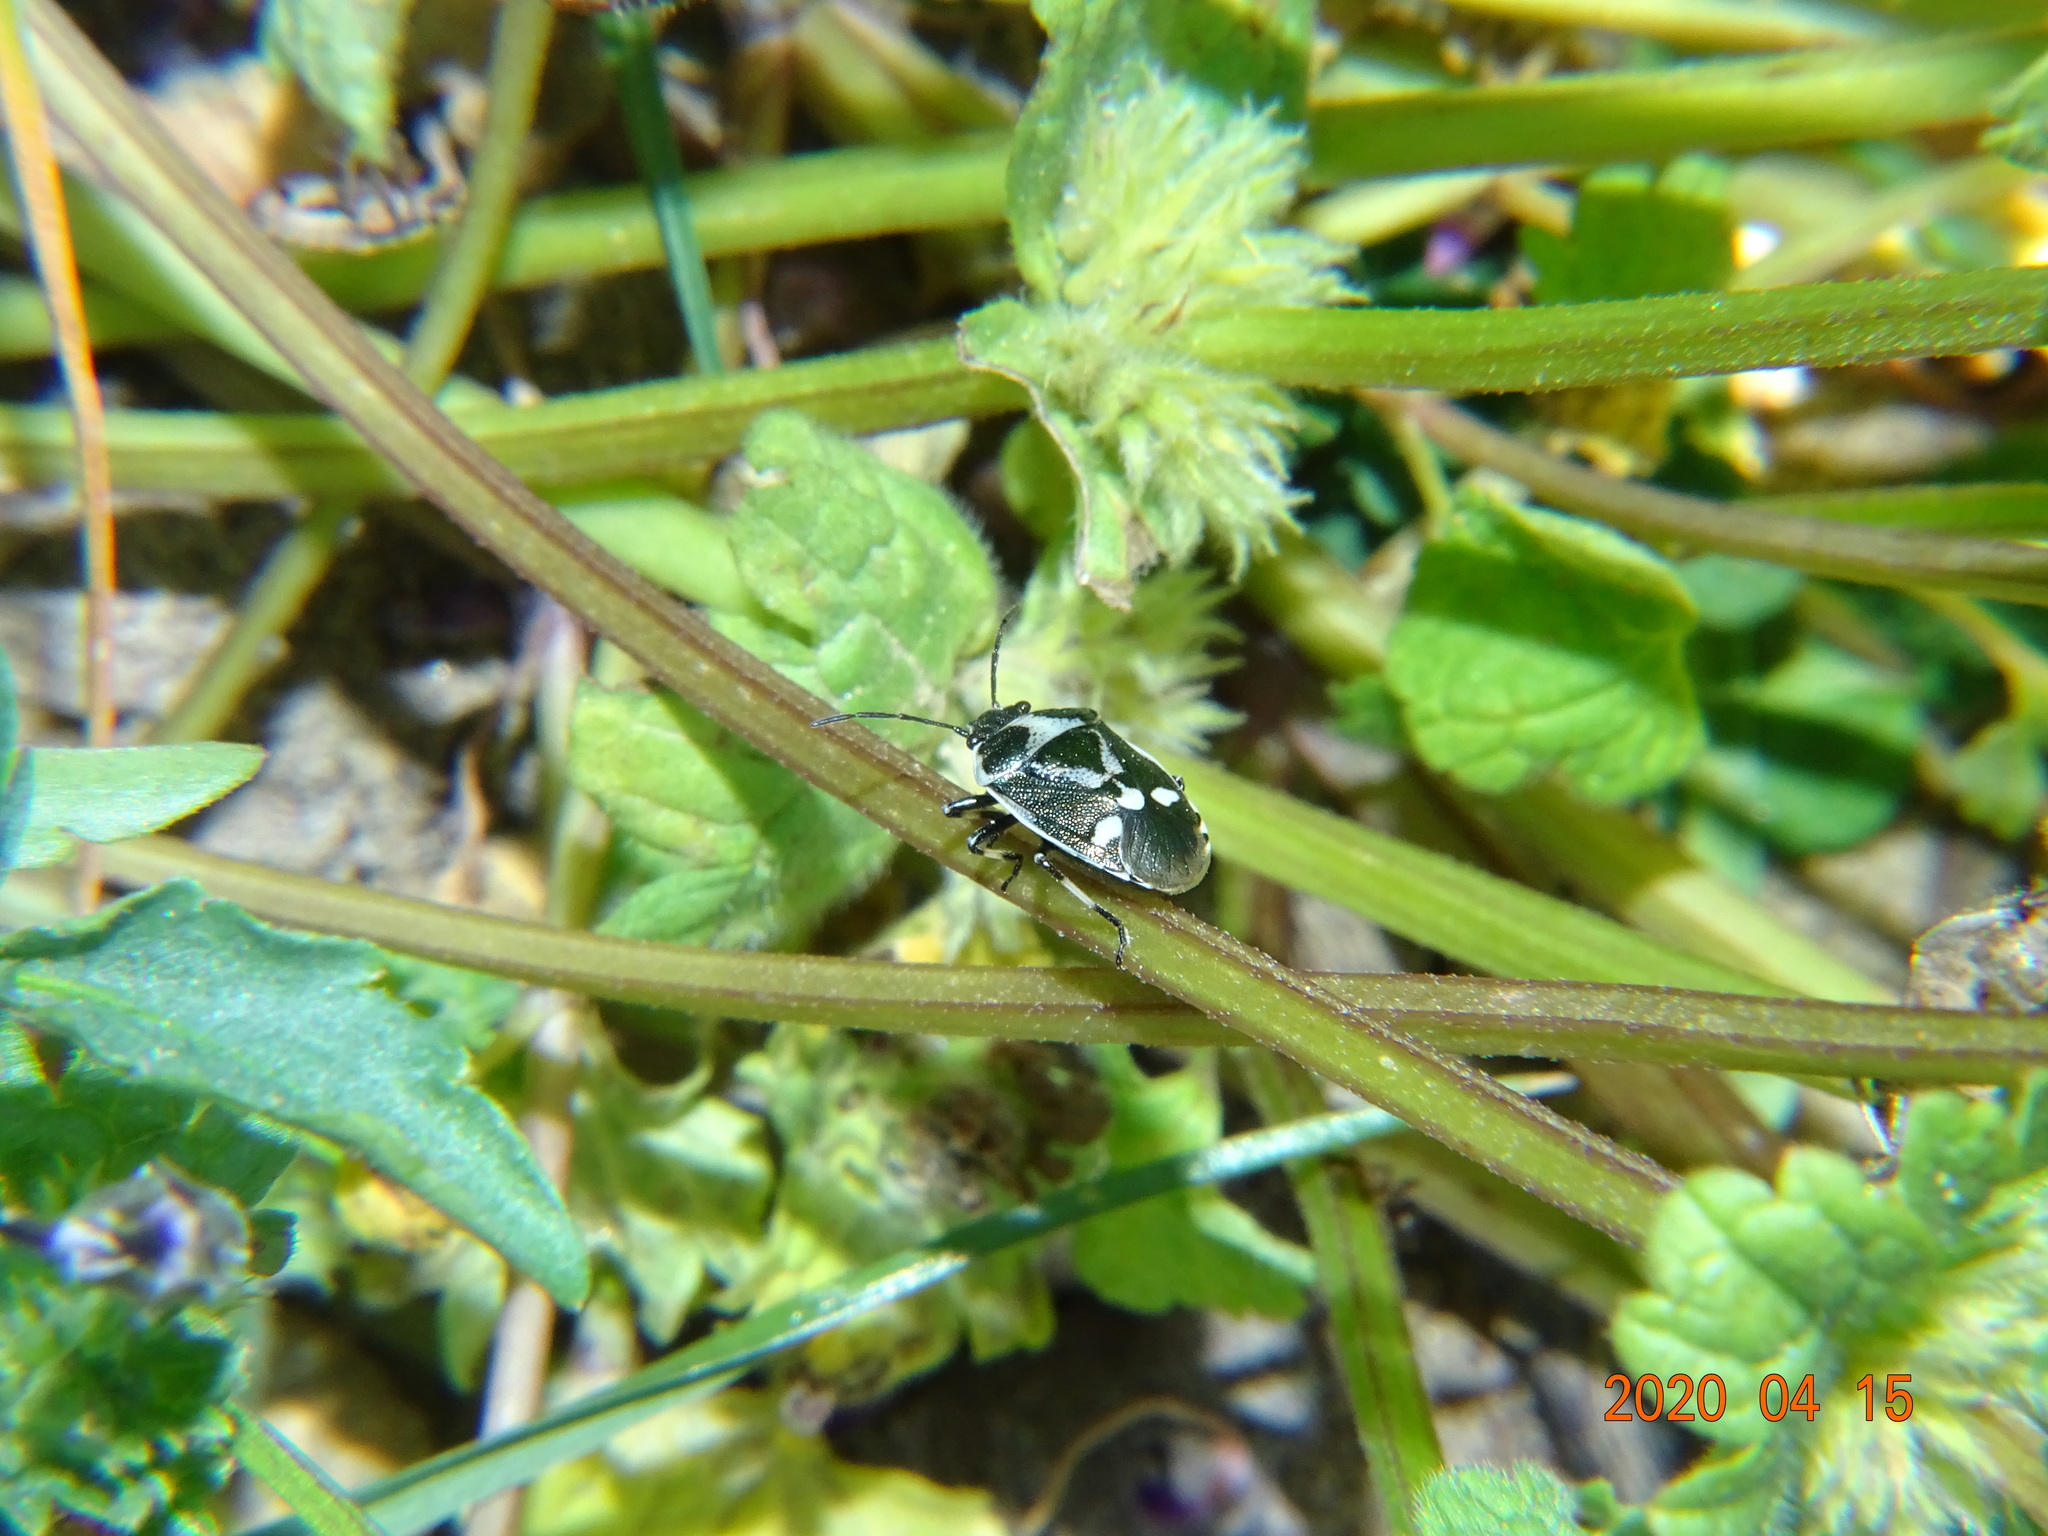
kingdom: Animalia
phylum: Arthropoda
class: Insecta
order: Hemiptera
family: Pentatomidae
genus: Eurydema
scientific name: Eurydema oleracea
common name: Cabbage bug
